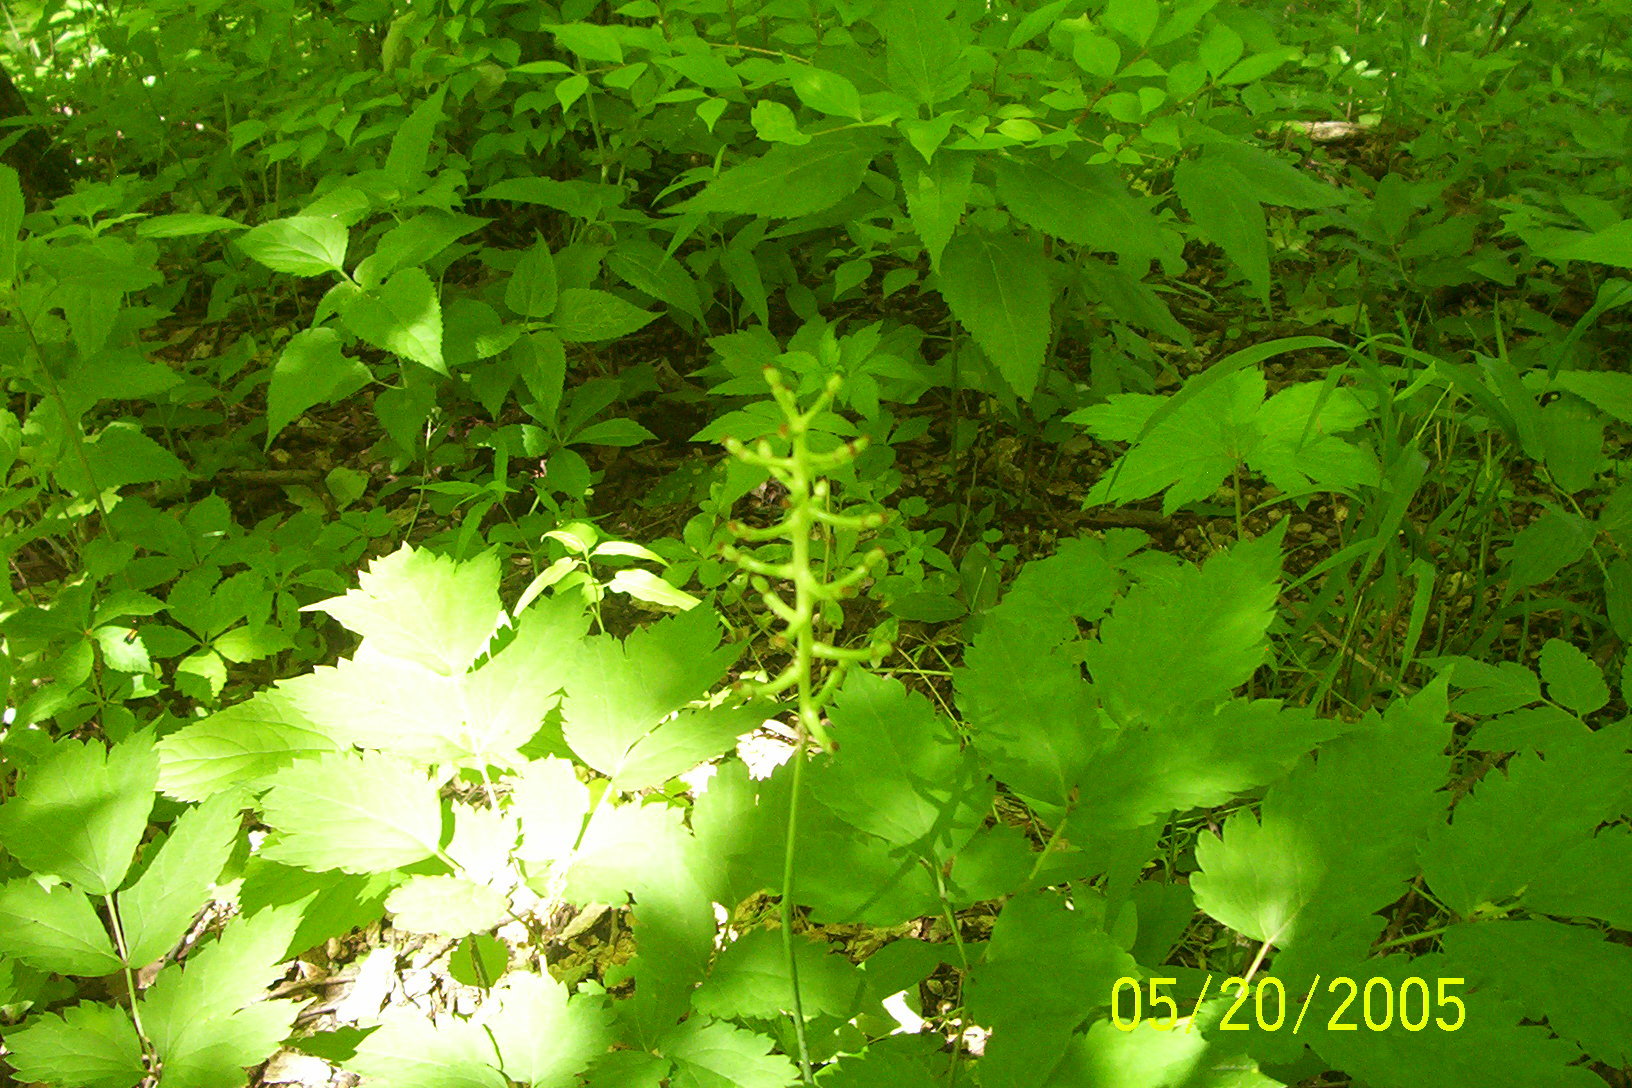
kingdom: Plantae
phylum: Tracheophyta
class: Magnoliopsida
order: Ranunculales
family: Ranunculaceae
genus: Actaea
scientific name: Actaea pachypoda
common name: Doll's-eyes
